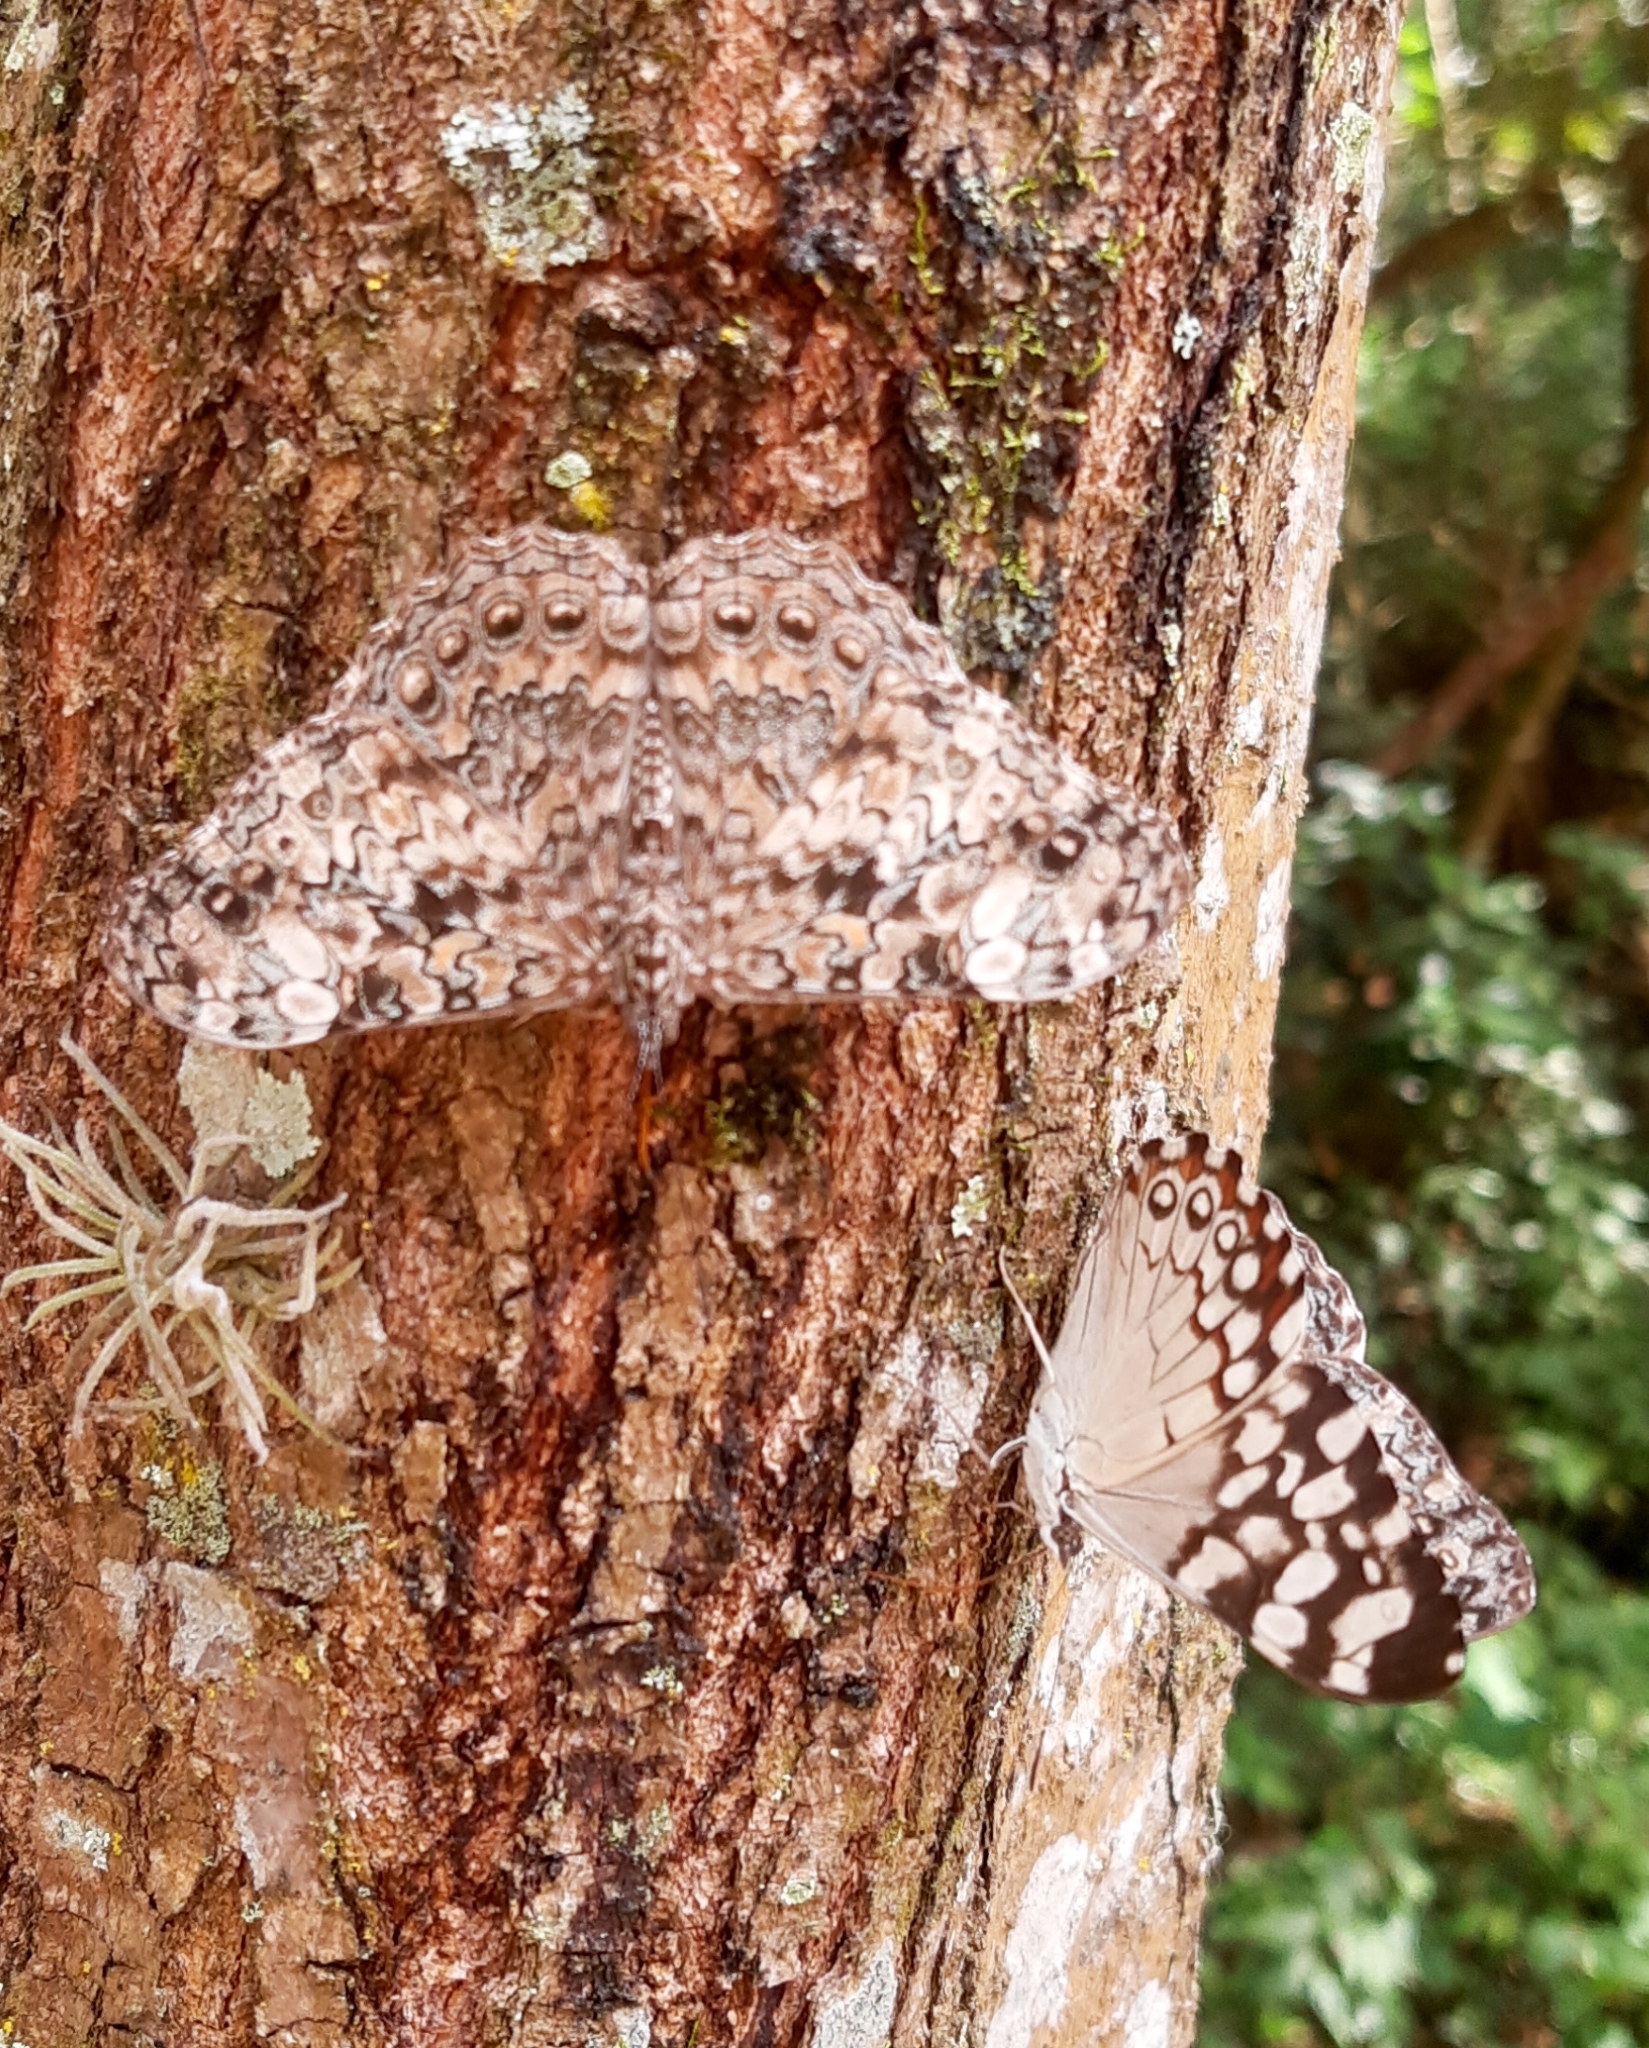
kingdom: Animalia
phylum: Arthropoda
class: Insecta
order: Lepidoptera
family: Nymphalidae
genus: Hamadryas
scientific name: Hamadryas epinome
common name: Epinome cracker
